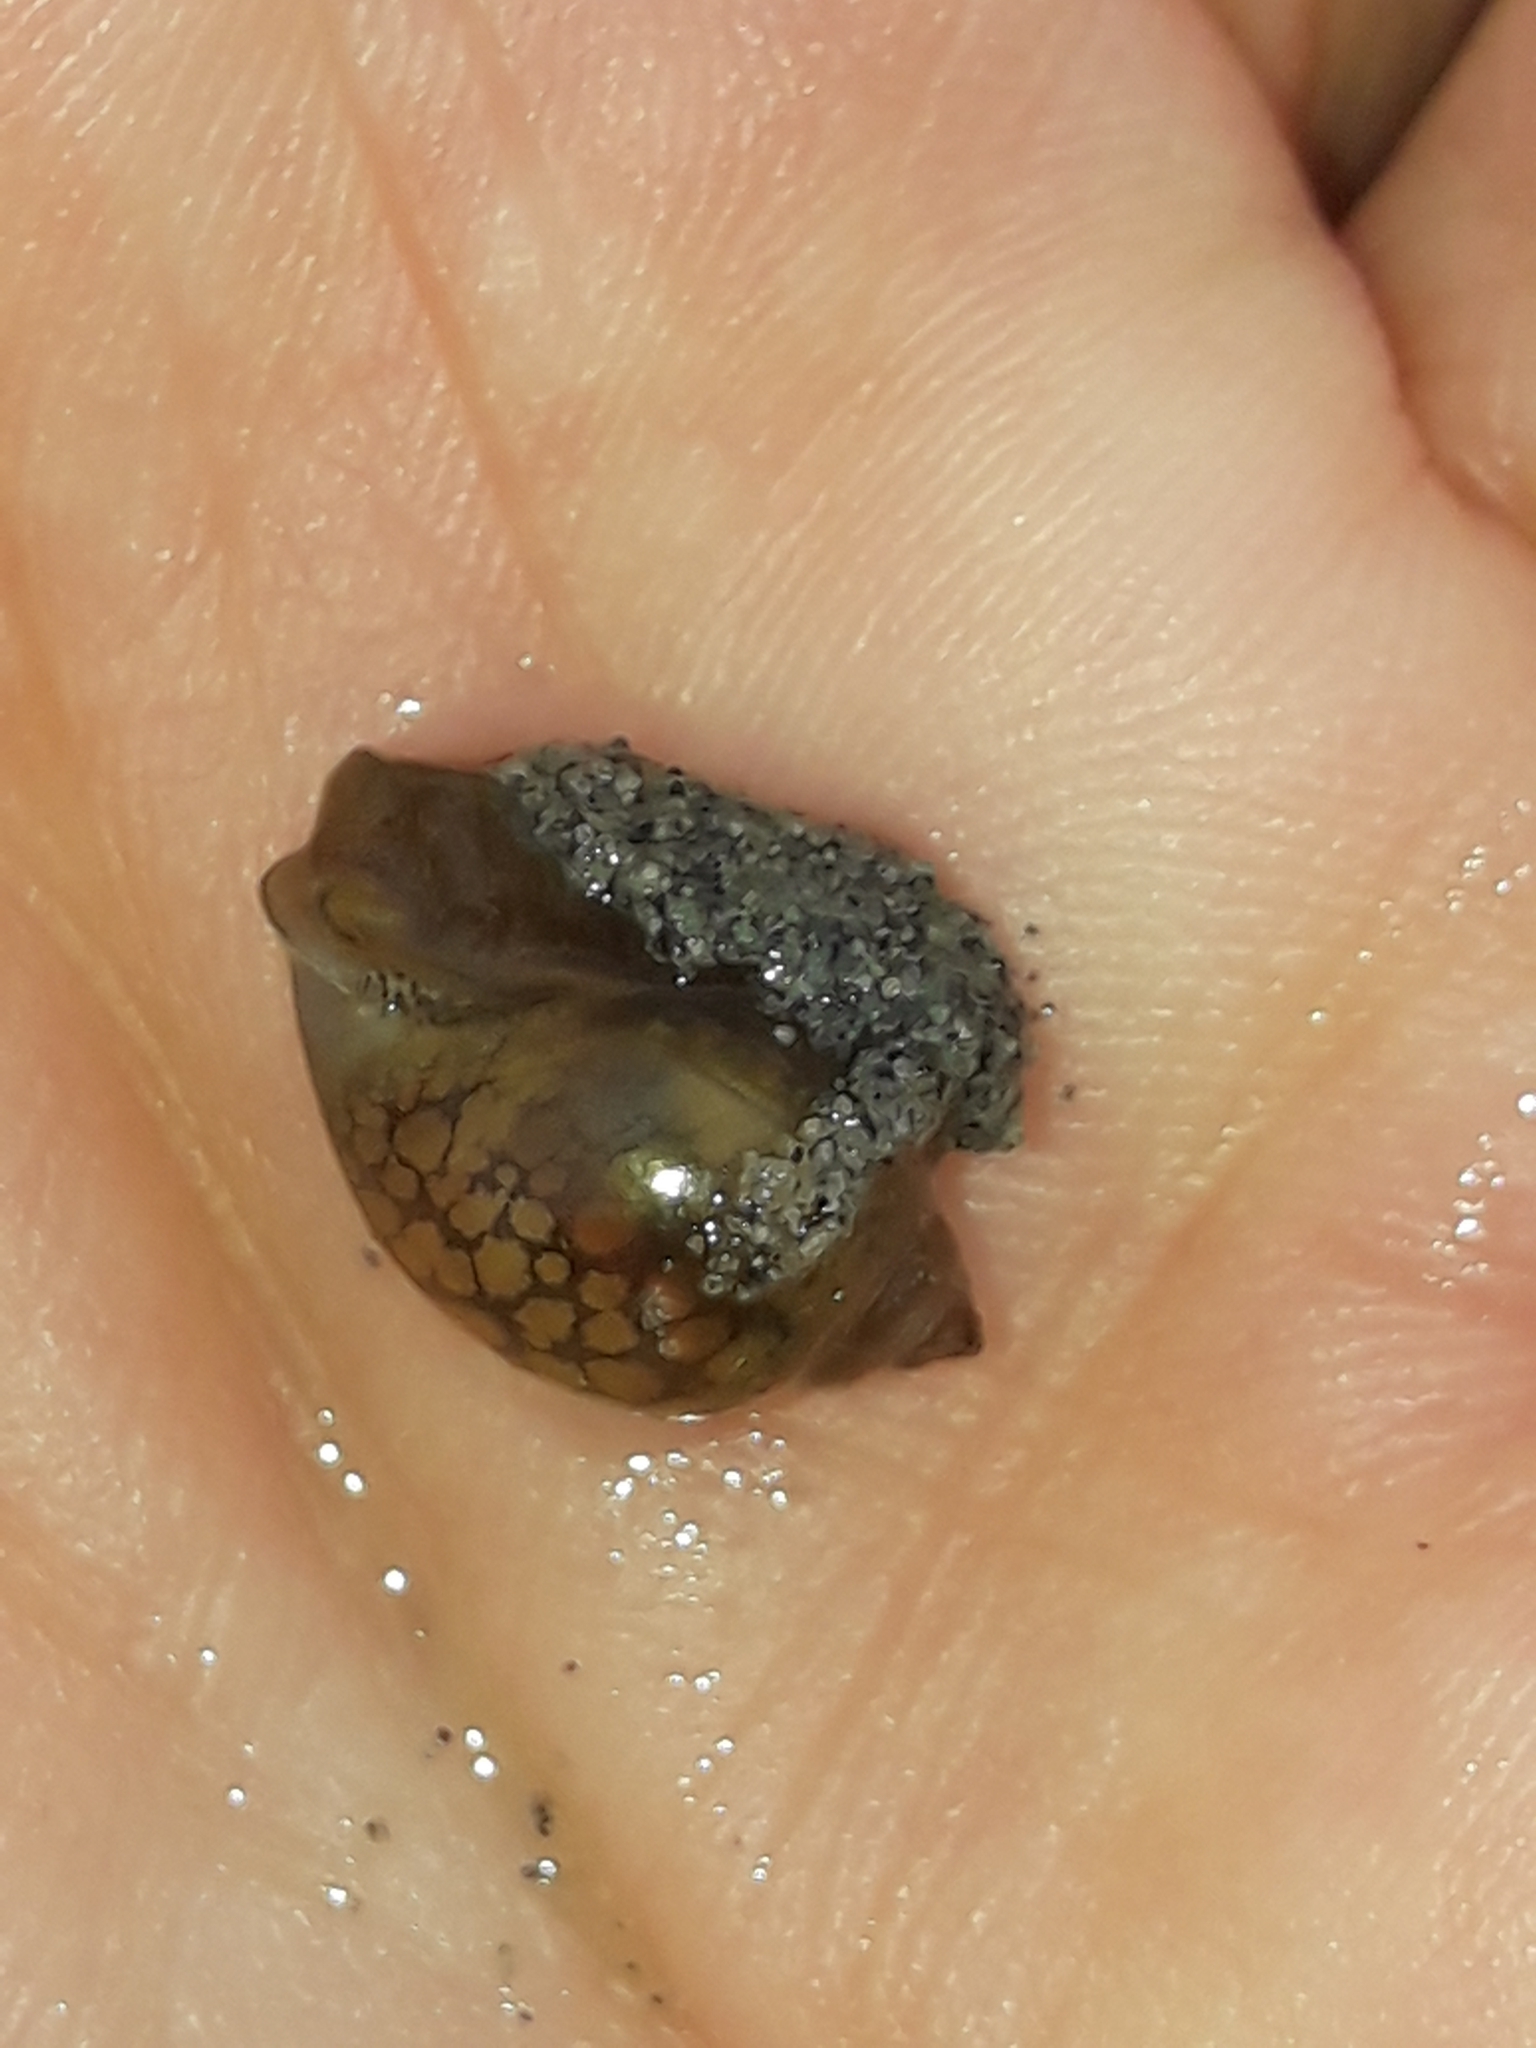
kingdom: Animalia
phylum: Mollusca
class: Gastropoda
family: Physidae
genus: Physella
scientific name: Physella acuta
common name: European physa
